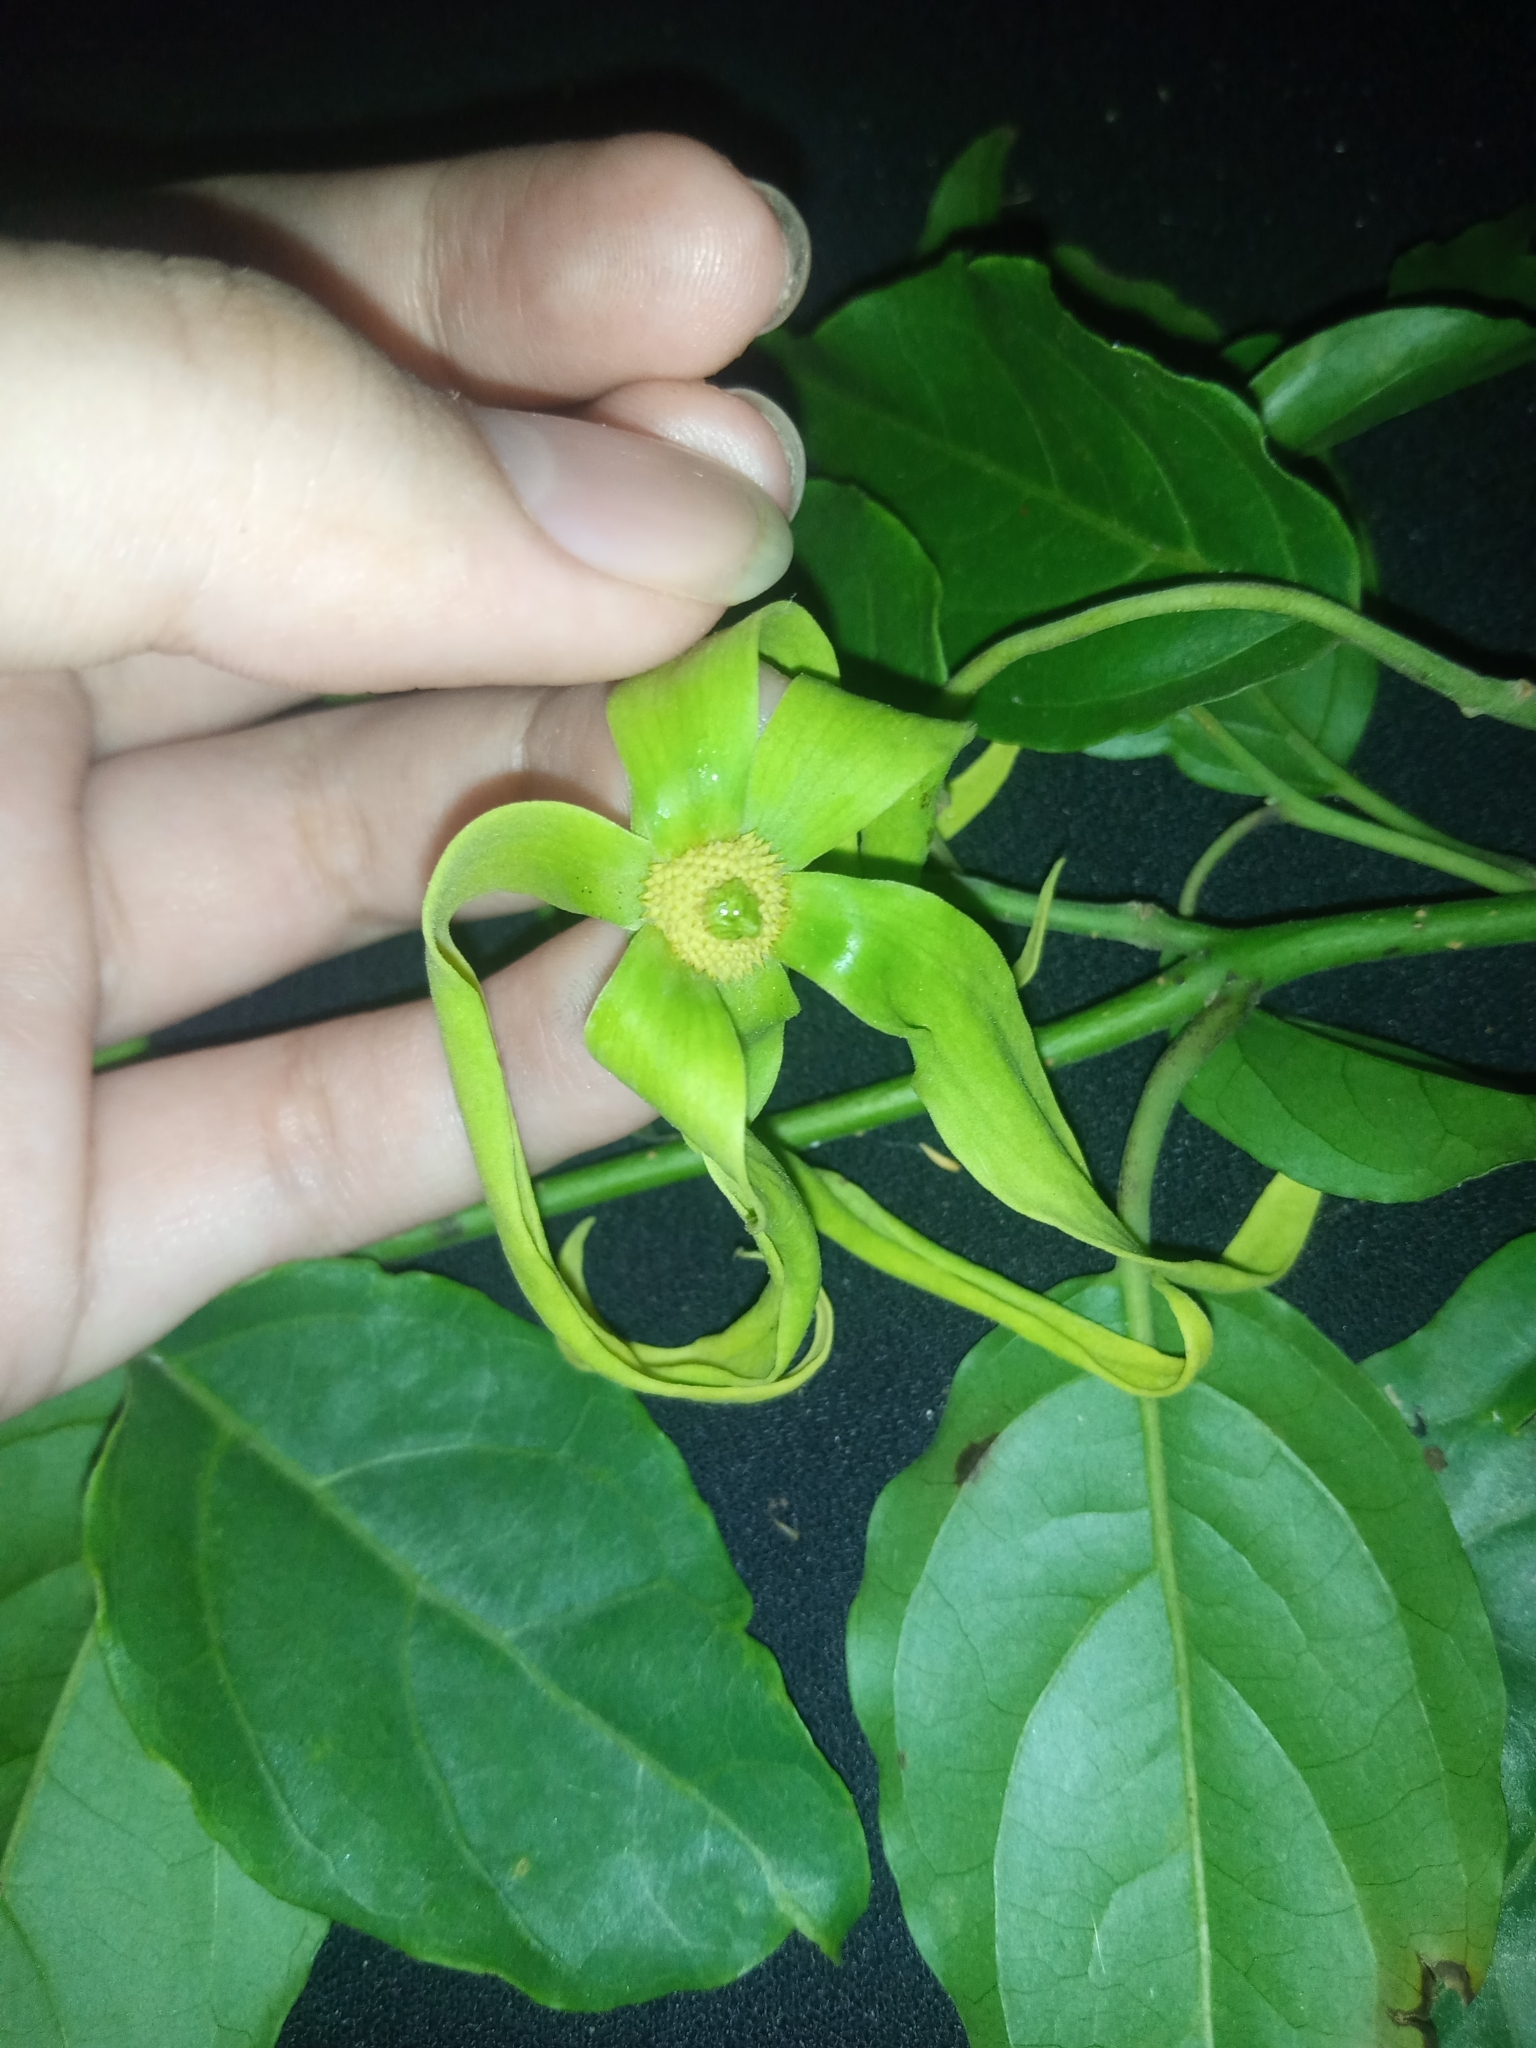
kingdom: Plantae
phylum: Tracheophyta
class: Magnoliopsida
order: Magnoliales
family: Annonaceae
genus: Cananga
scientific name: Cananga odorata
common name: Cananga tree
